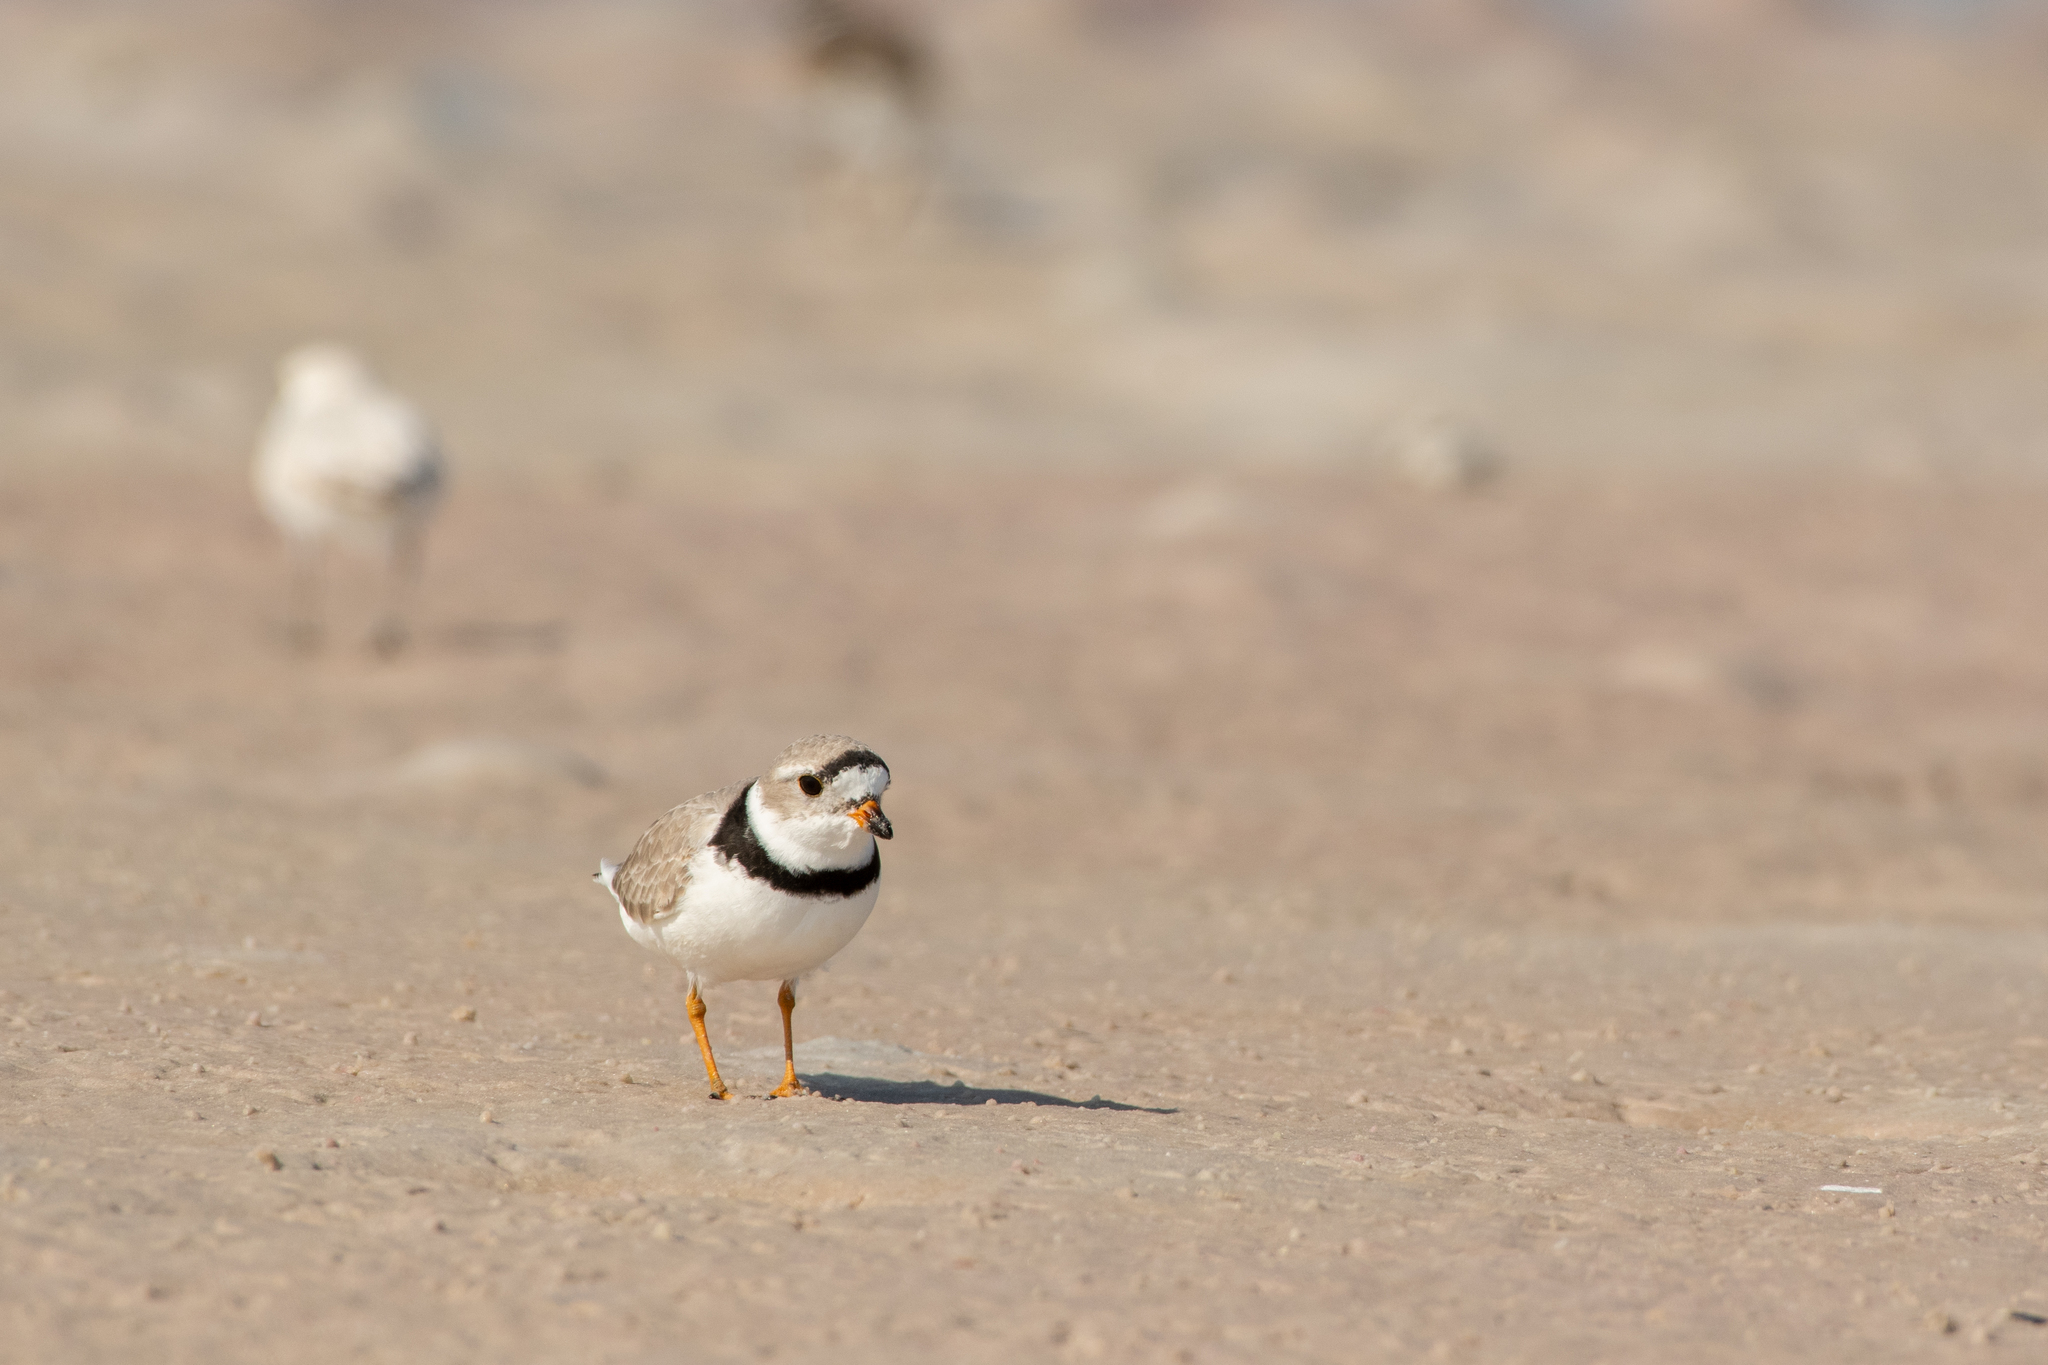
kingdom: Animalia
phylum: Chordata
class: Aves
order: Charadriiformes
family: Charadriidae
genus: Charadrius
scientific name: Charadrius melodus
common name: Piping plover
